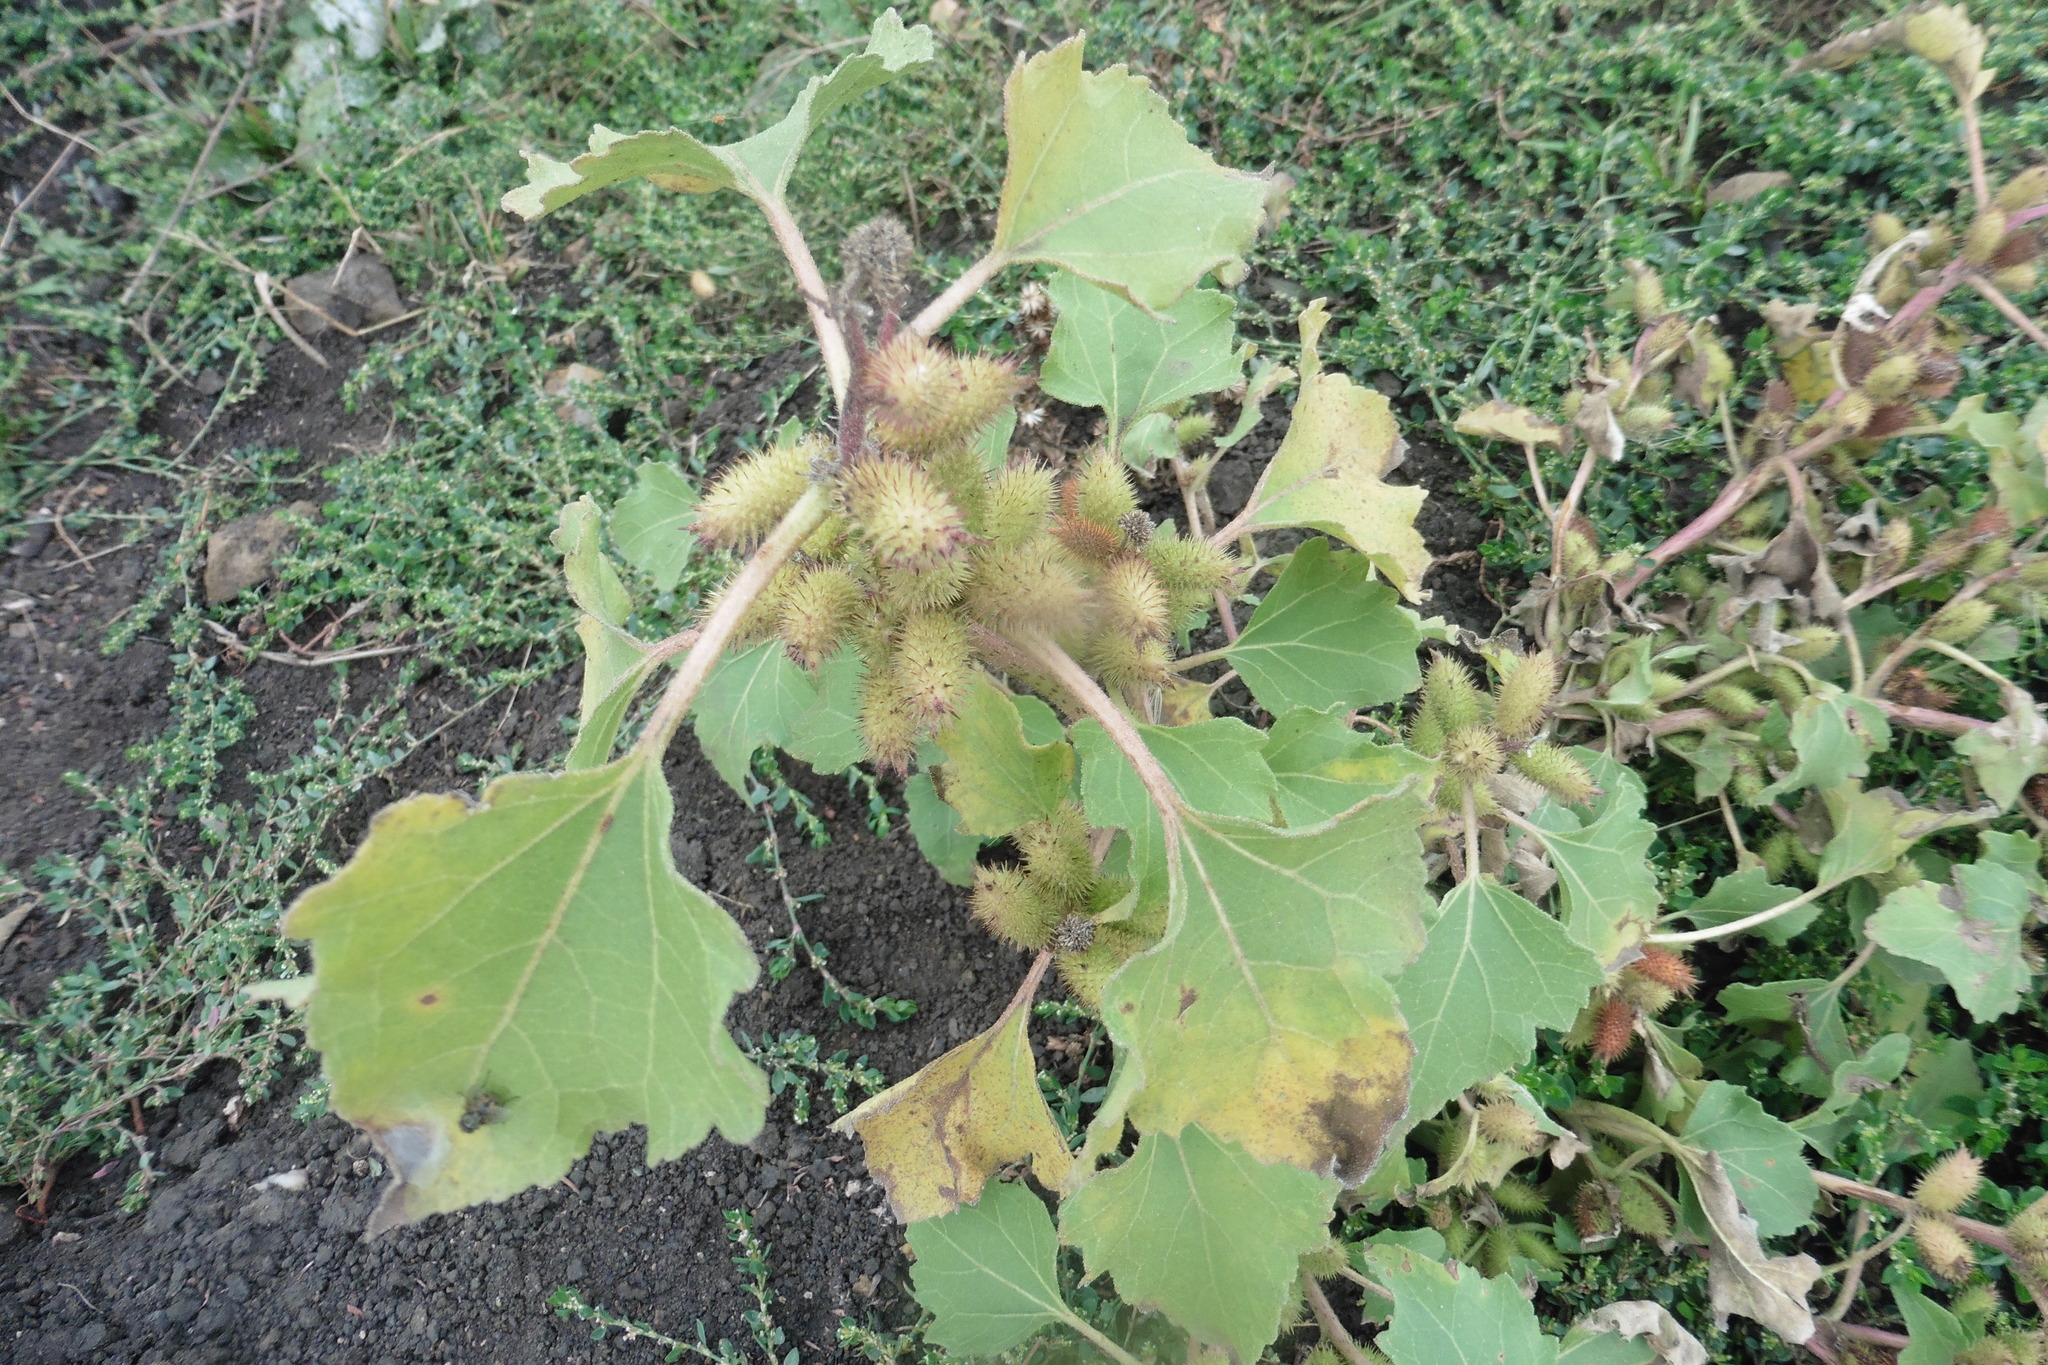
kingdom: Plantae
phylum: Tracheophyta
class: Magnoliopsida
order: Asterales
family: Asteraceae
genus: Xanthium
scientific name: Xanthium orientale
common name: Californian burr
